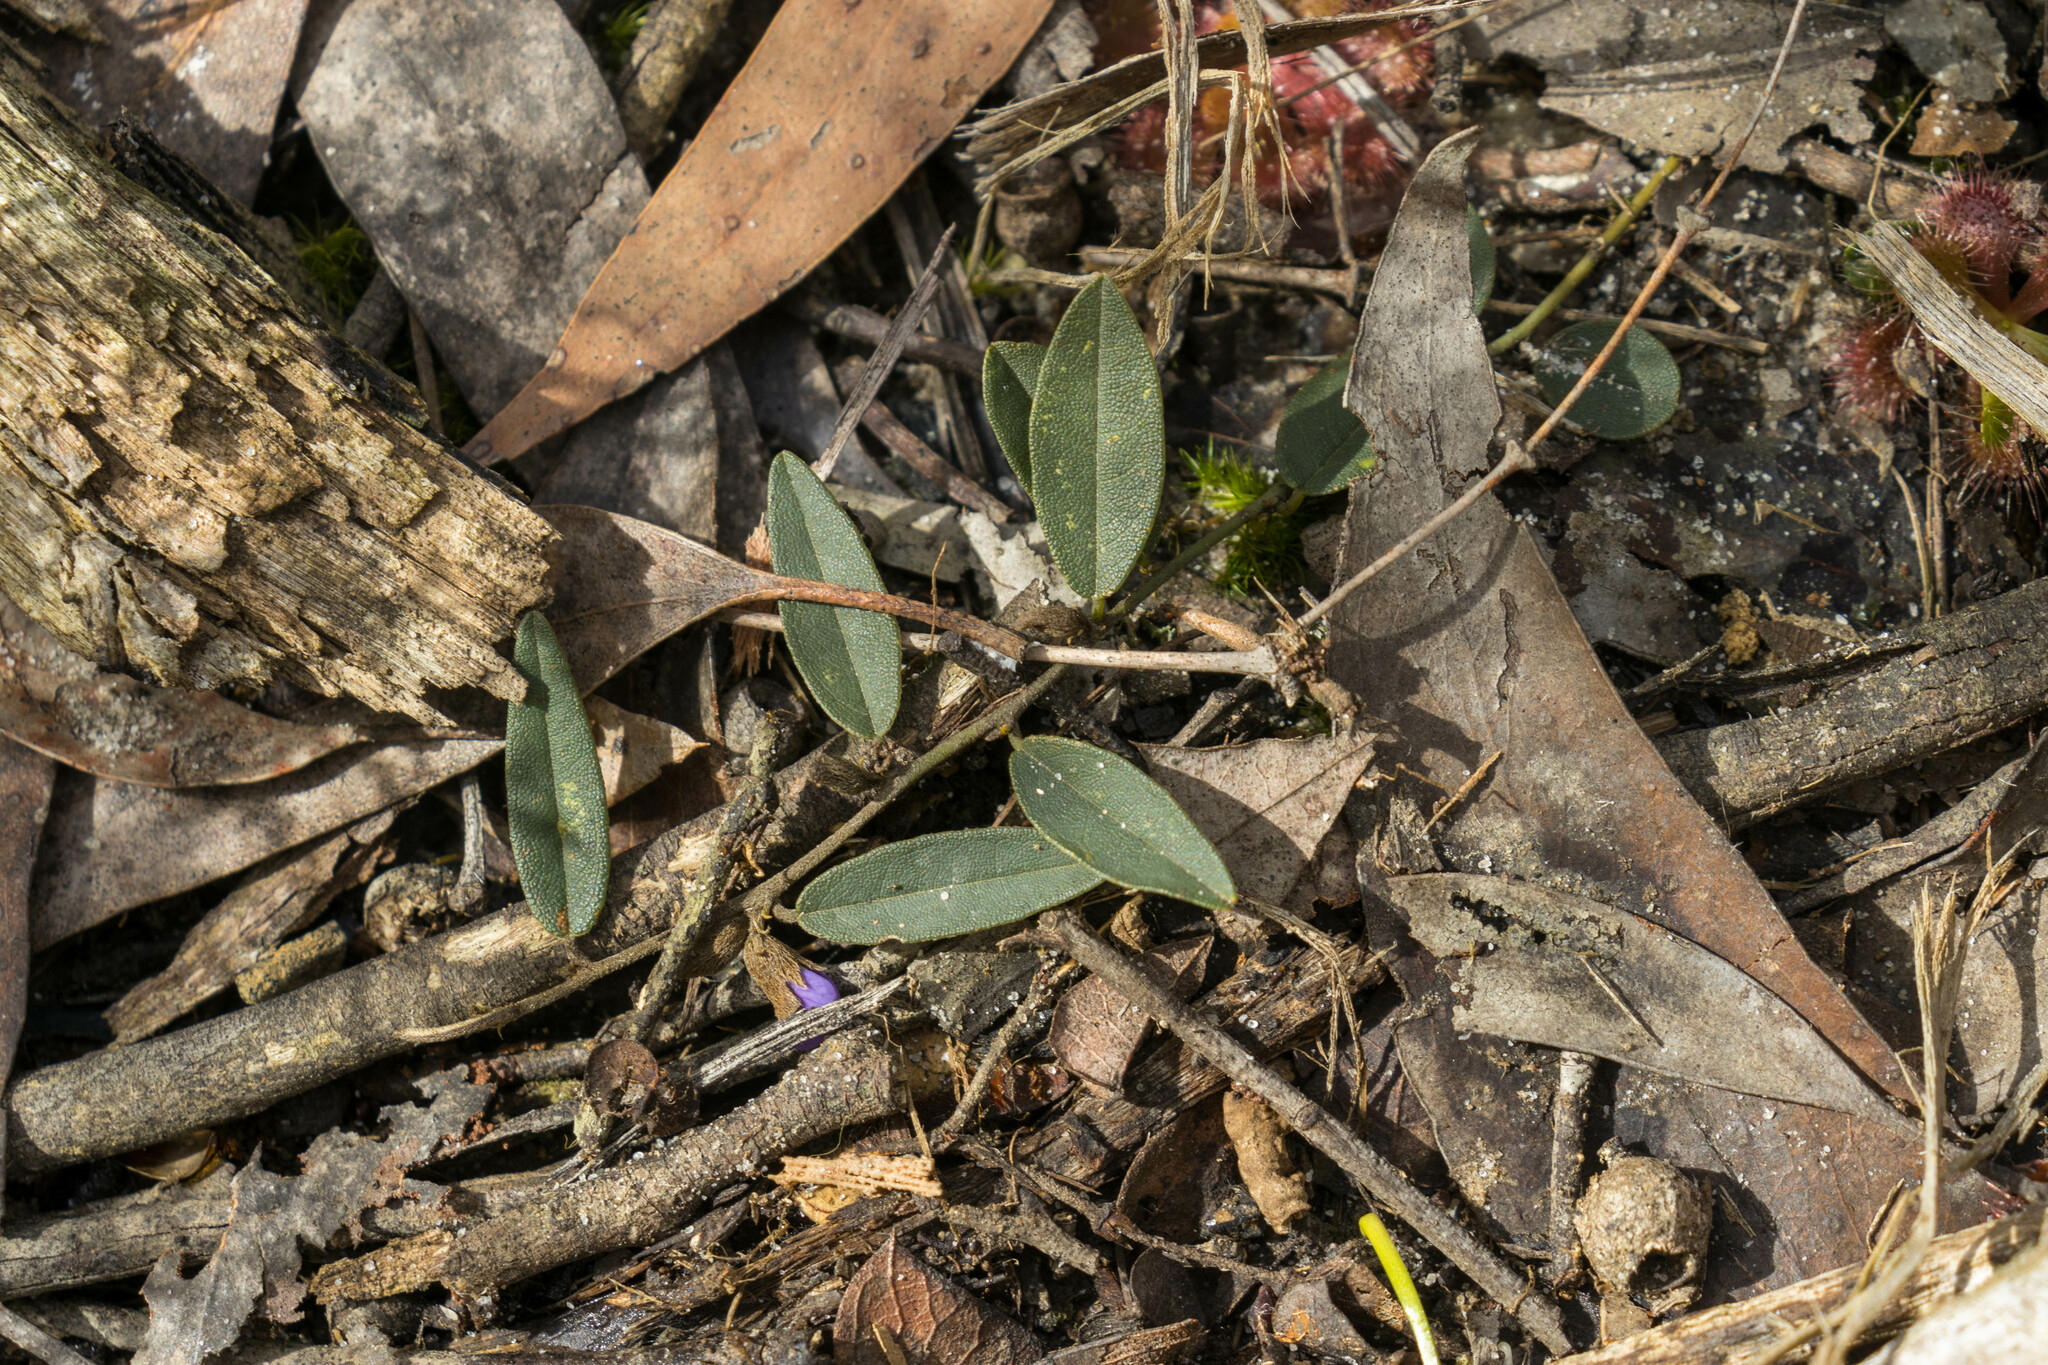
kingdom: Plantae
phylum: Tracheophyta
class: Magnoliopsida
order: Fabales
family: Fabaceae
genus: Hovea
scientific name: Hovea heterophylla
